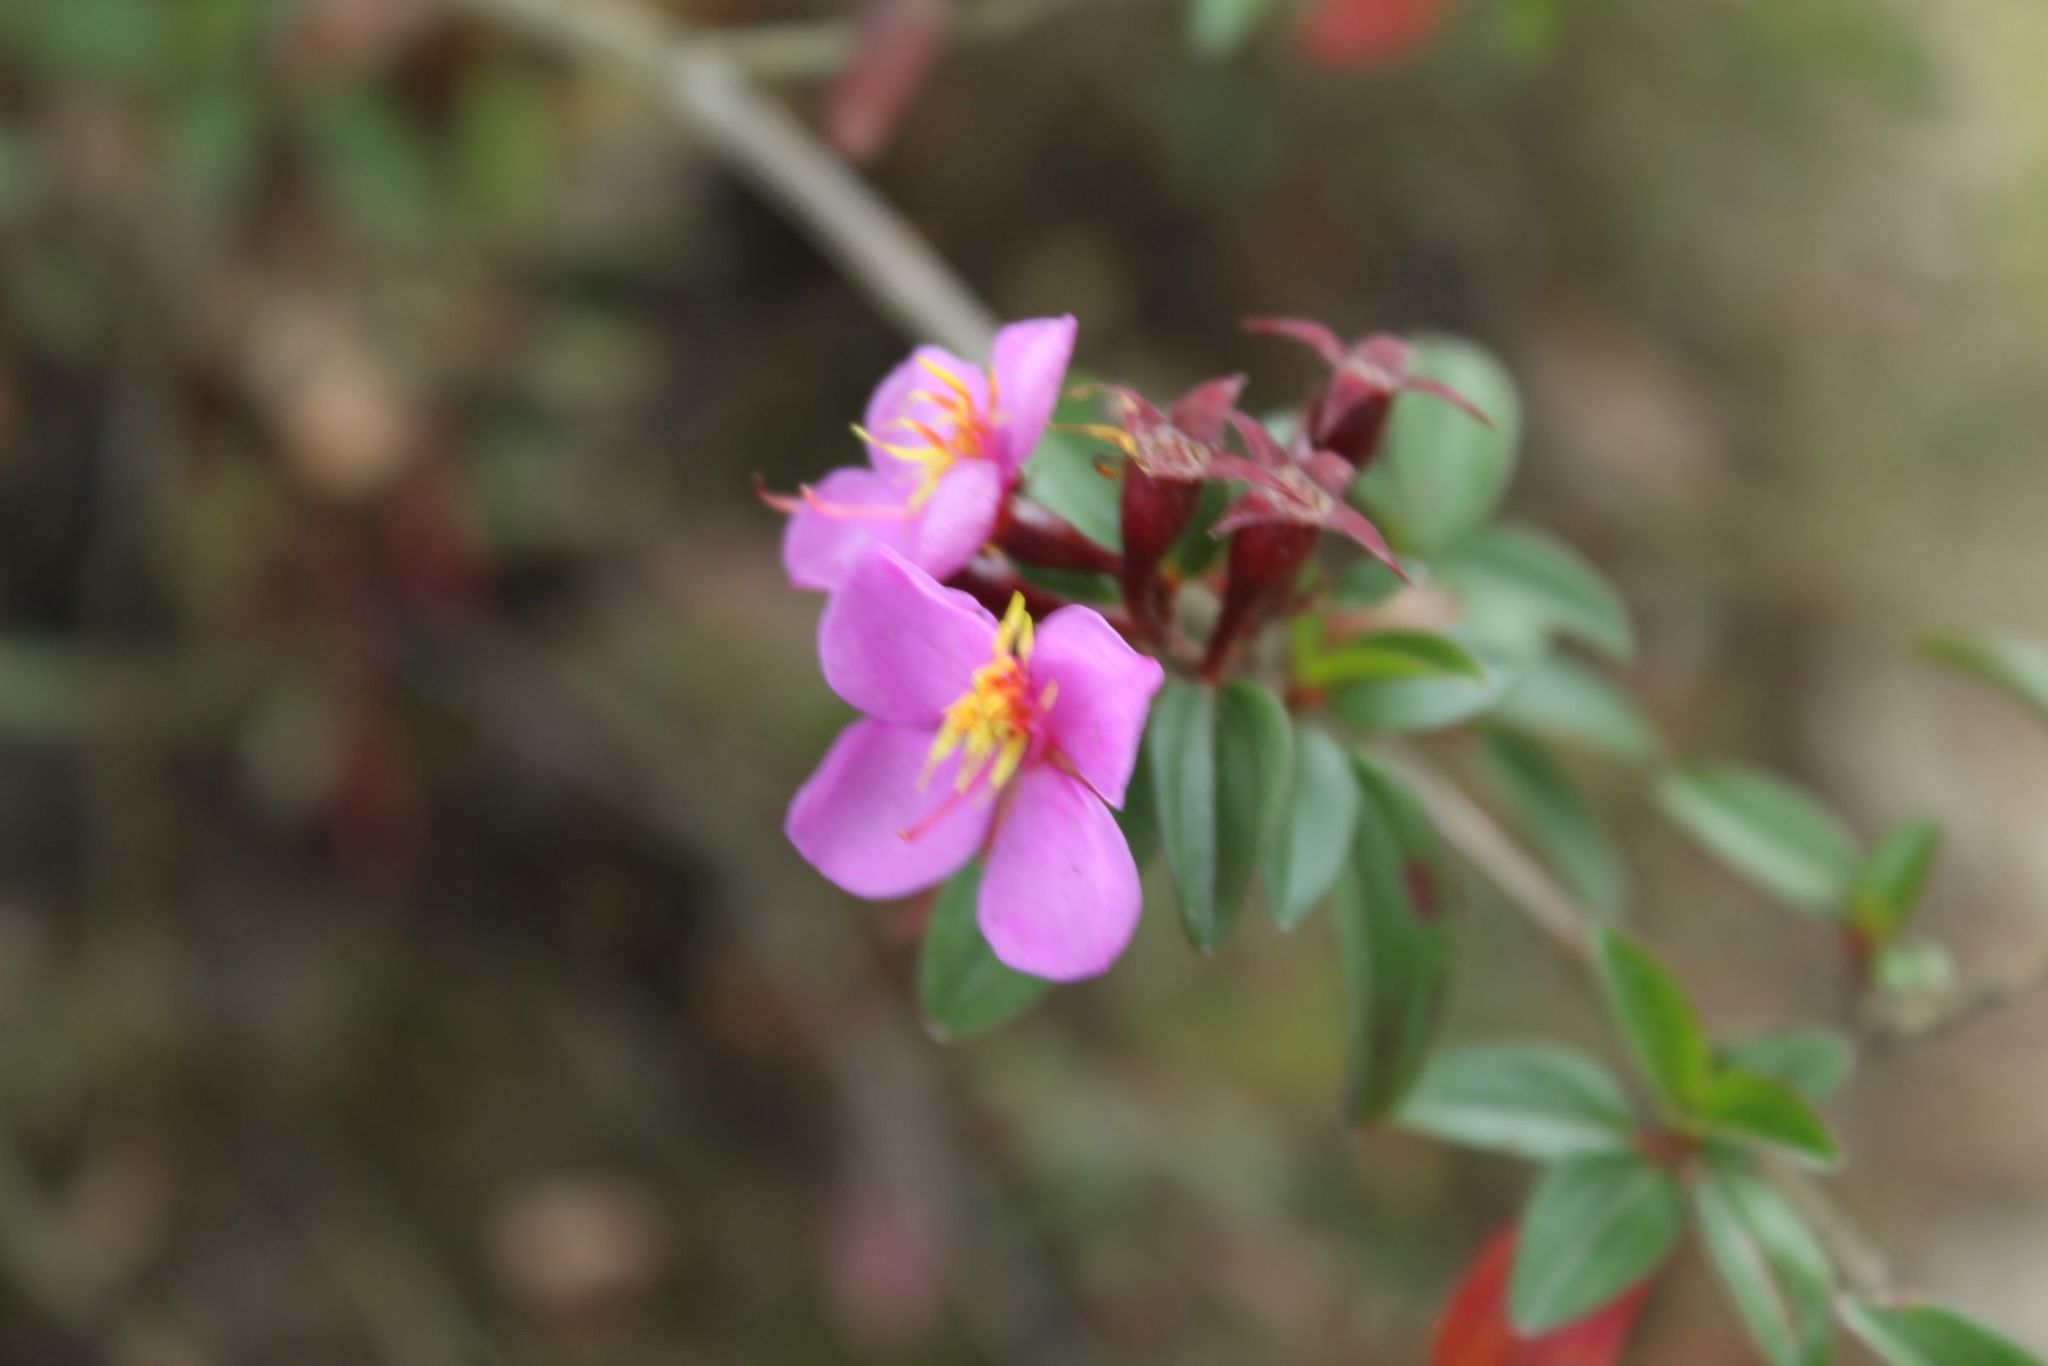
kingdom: Plantae
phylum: Tracheophyta
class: Magnoliopsida
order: Myrtales
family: Melastomataceae
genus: Monochaetum
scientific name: Monochaetum myrtoideum
